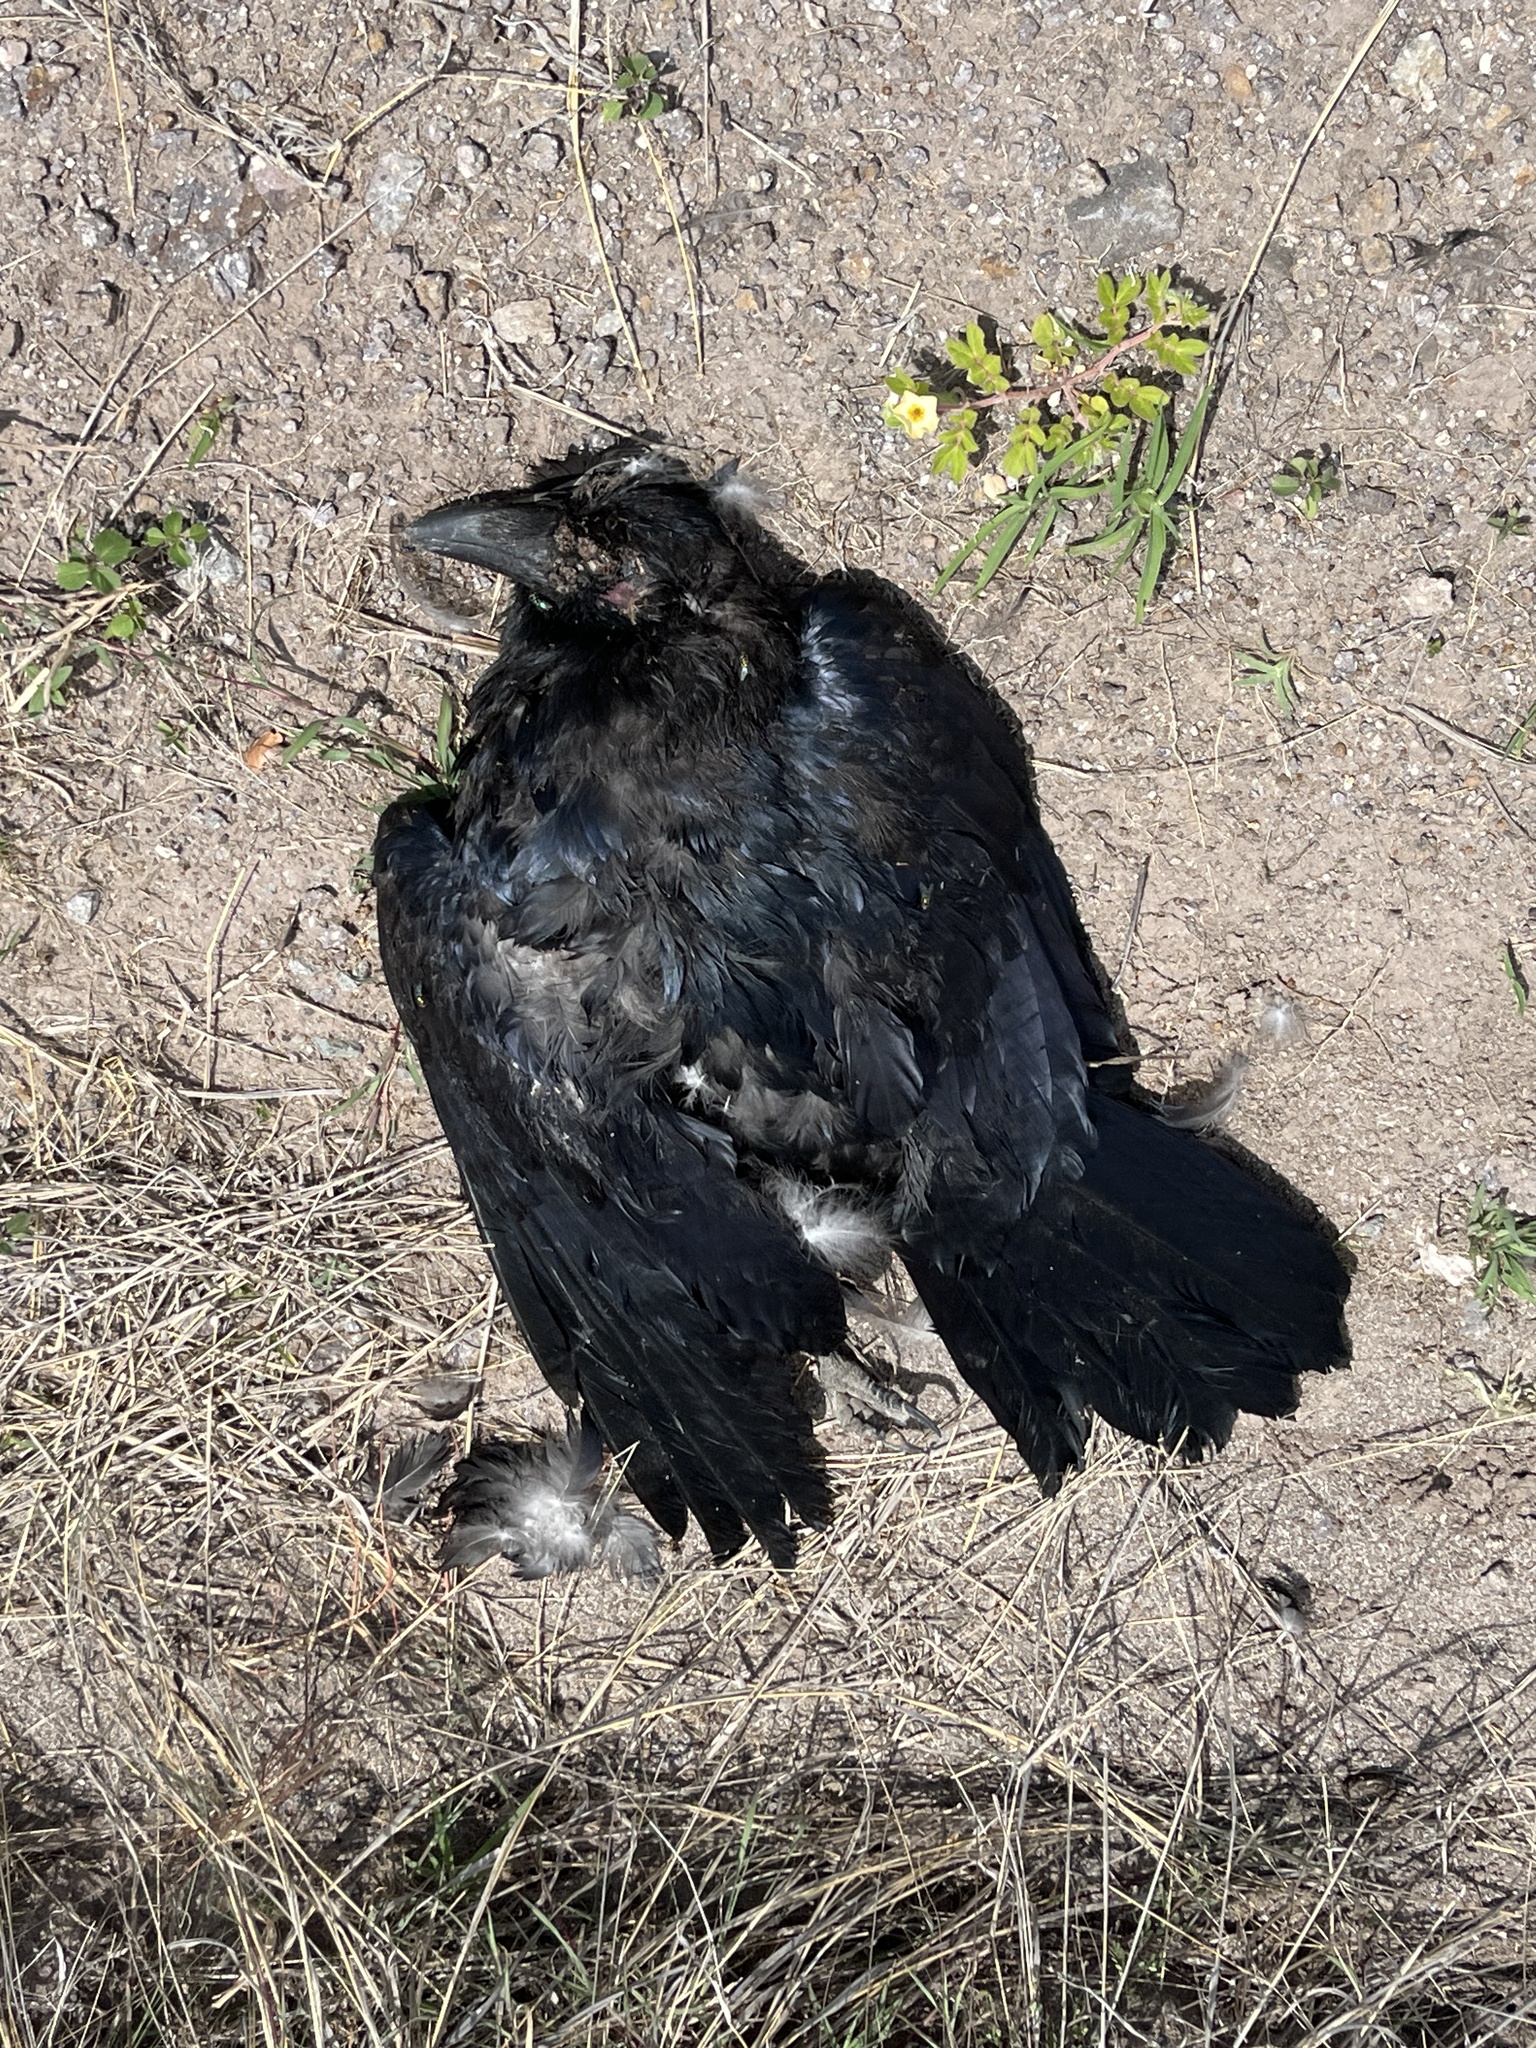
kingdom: Animalia
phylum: Chordata
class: Aves
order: Passeriformes
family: Corvidae
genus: Corvus
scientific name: Corvus corax
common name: Common raven
